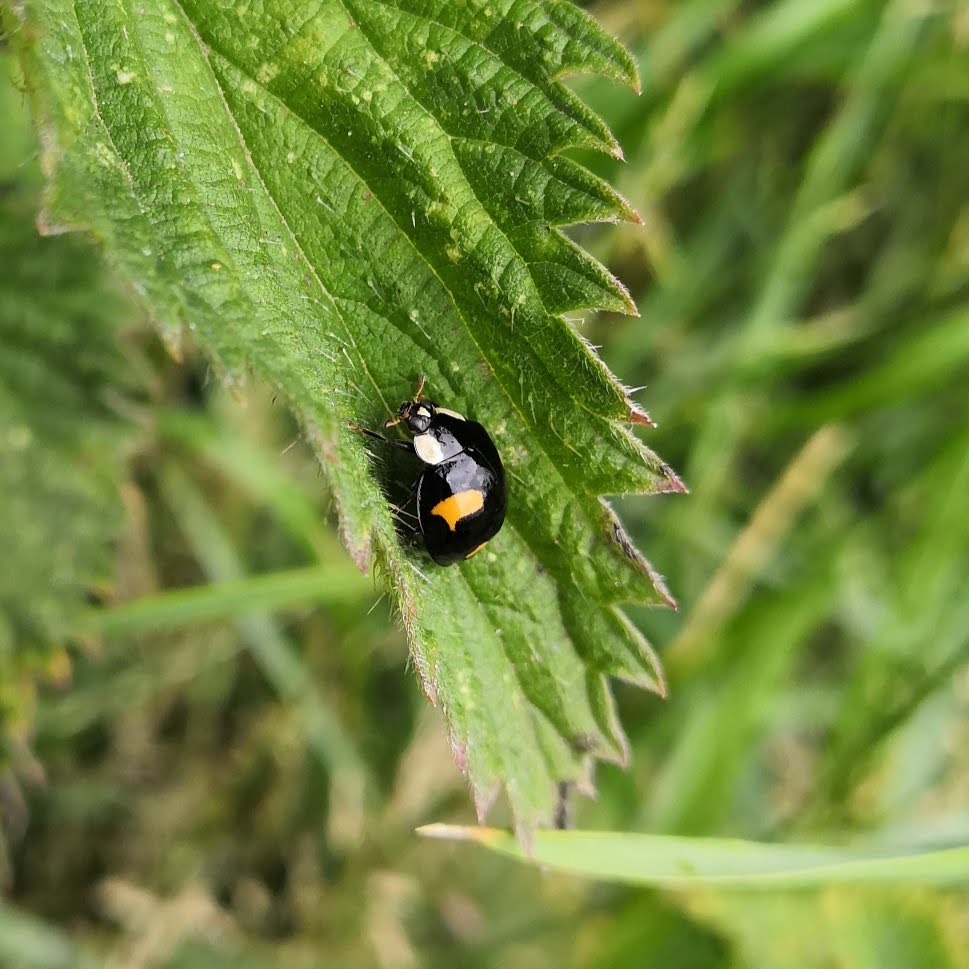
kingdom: Animalia
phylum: Arthropoda
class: Insecta
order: Coleoptera
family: Coccinellidae
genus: Harmonia
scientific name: Harmonia axyridis
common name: Harlequin ladybird
